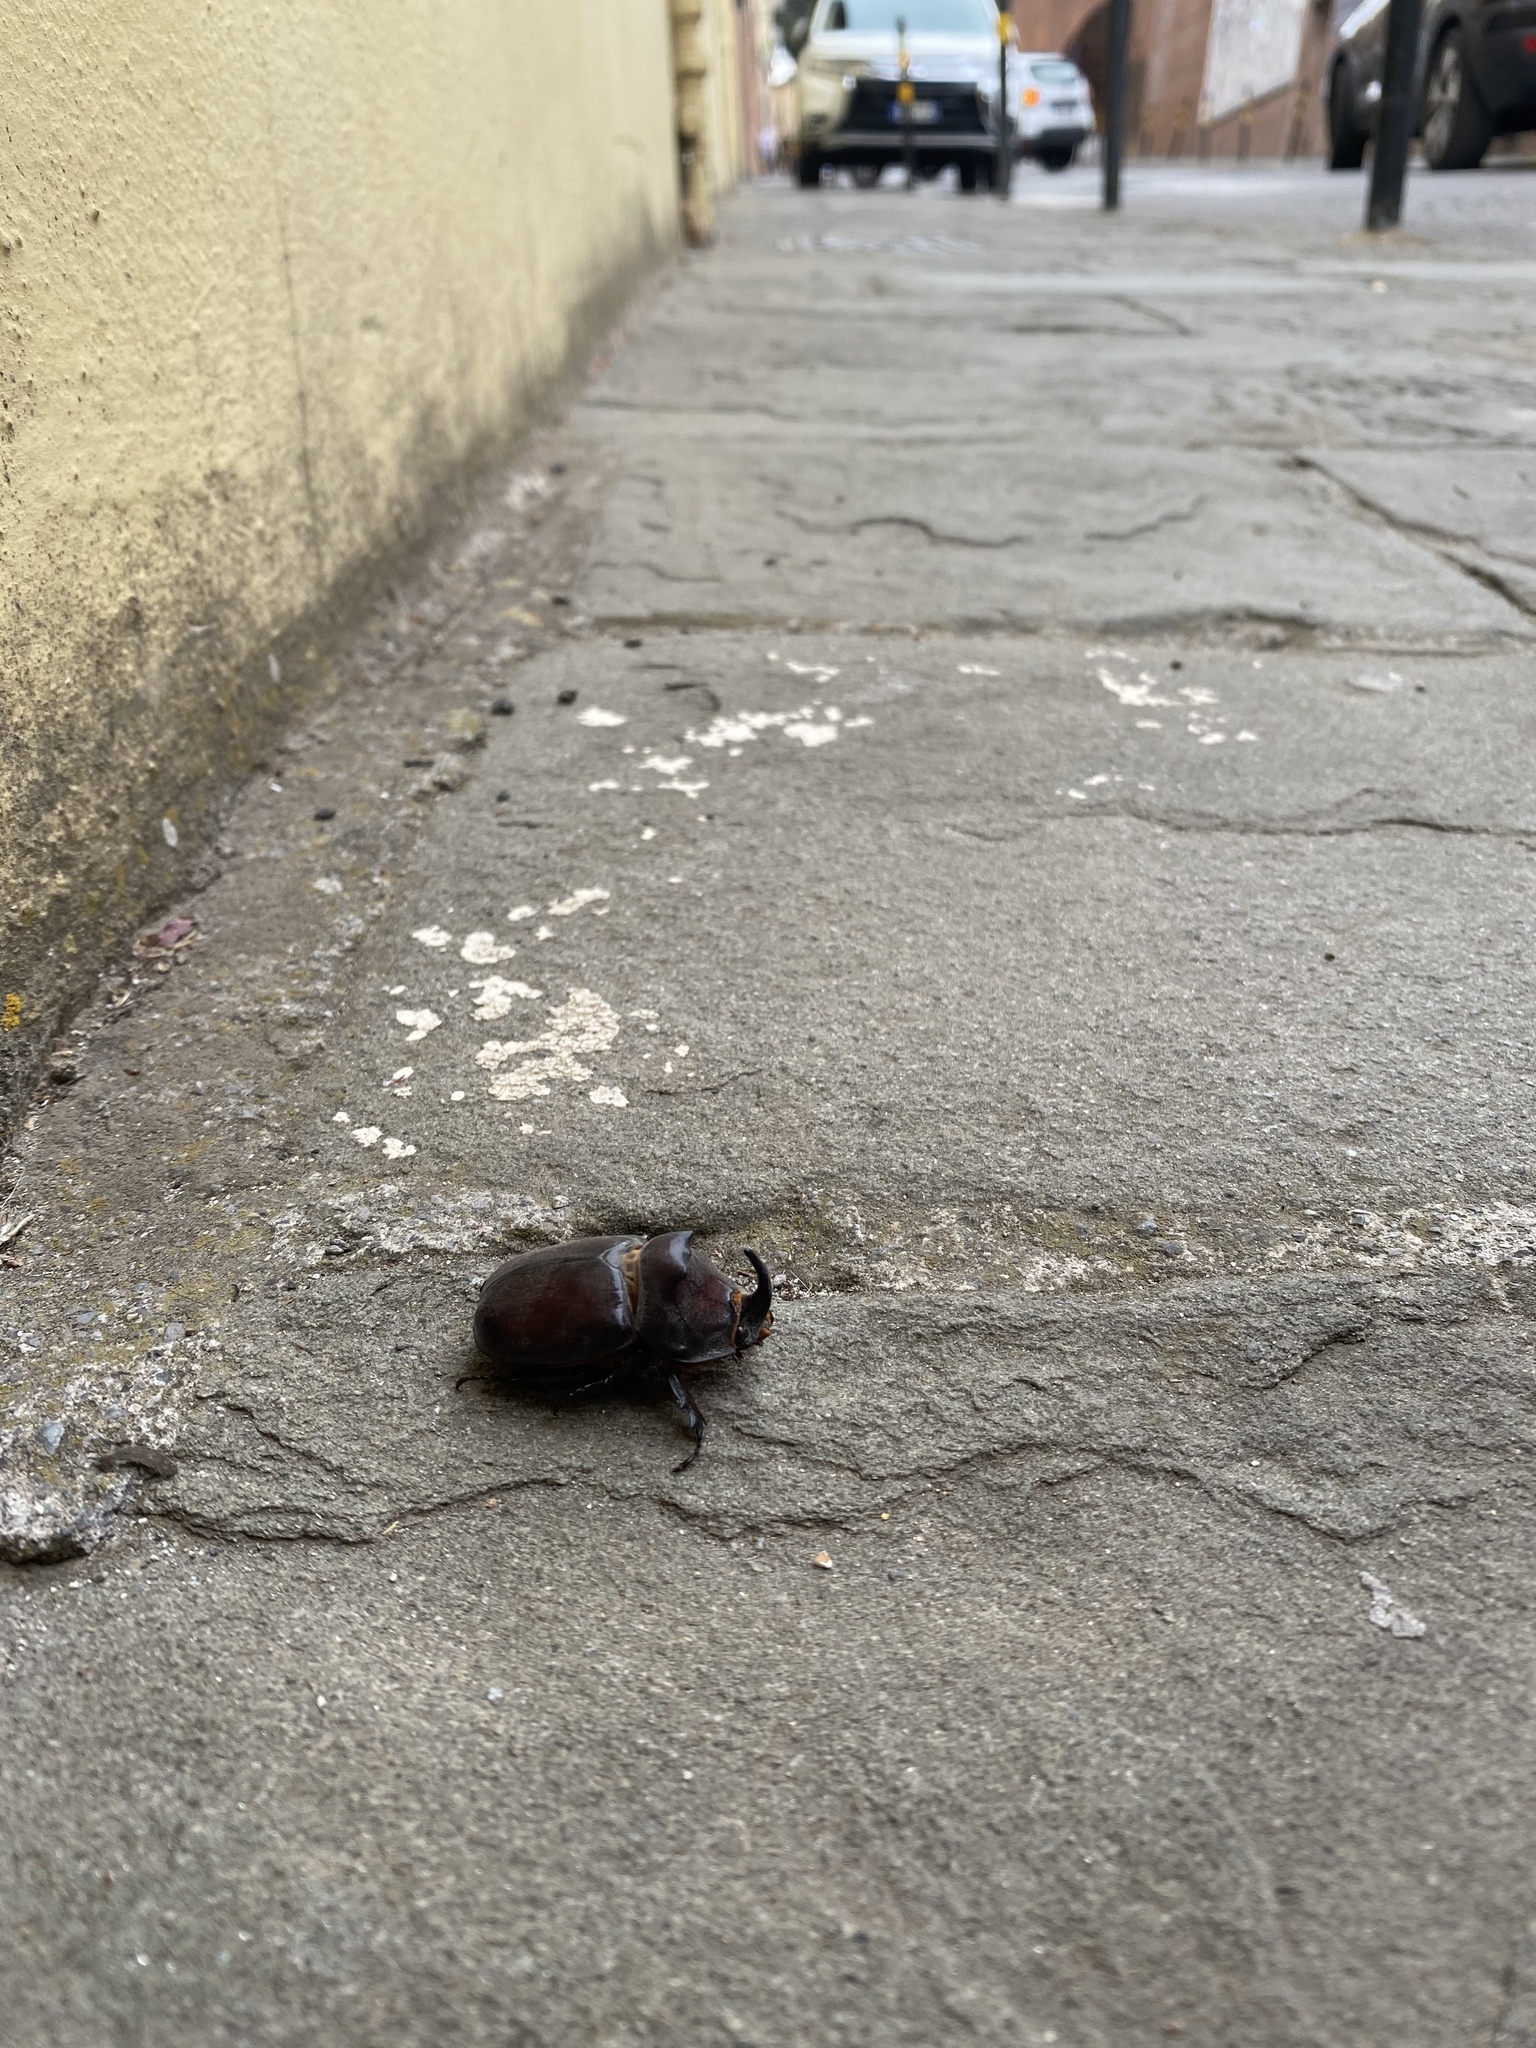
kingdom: Animalia
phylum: Arthropoda
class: Insecta
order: Coleoptera
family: Scarabaeidae
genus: Oryctes
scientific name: Oryctes nasicornis
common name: European rhinoceros beetle
